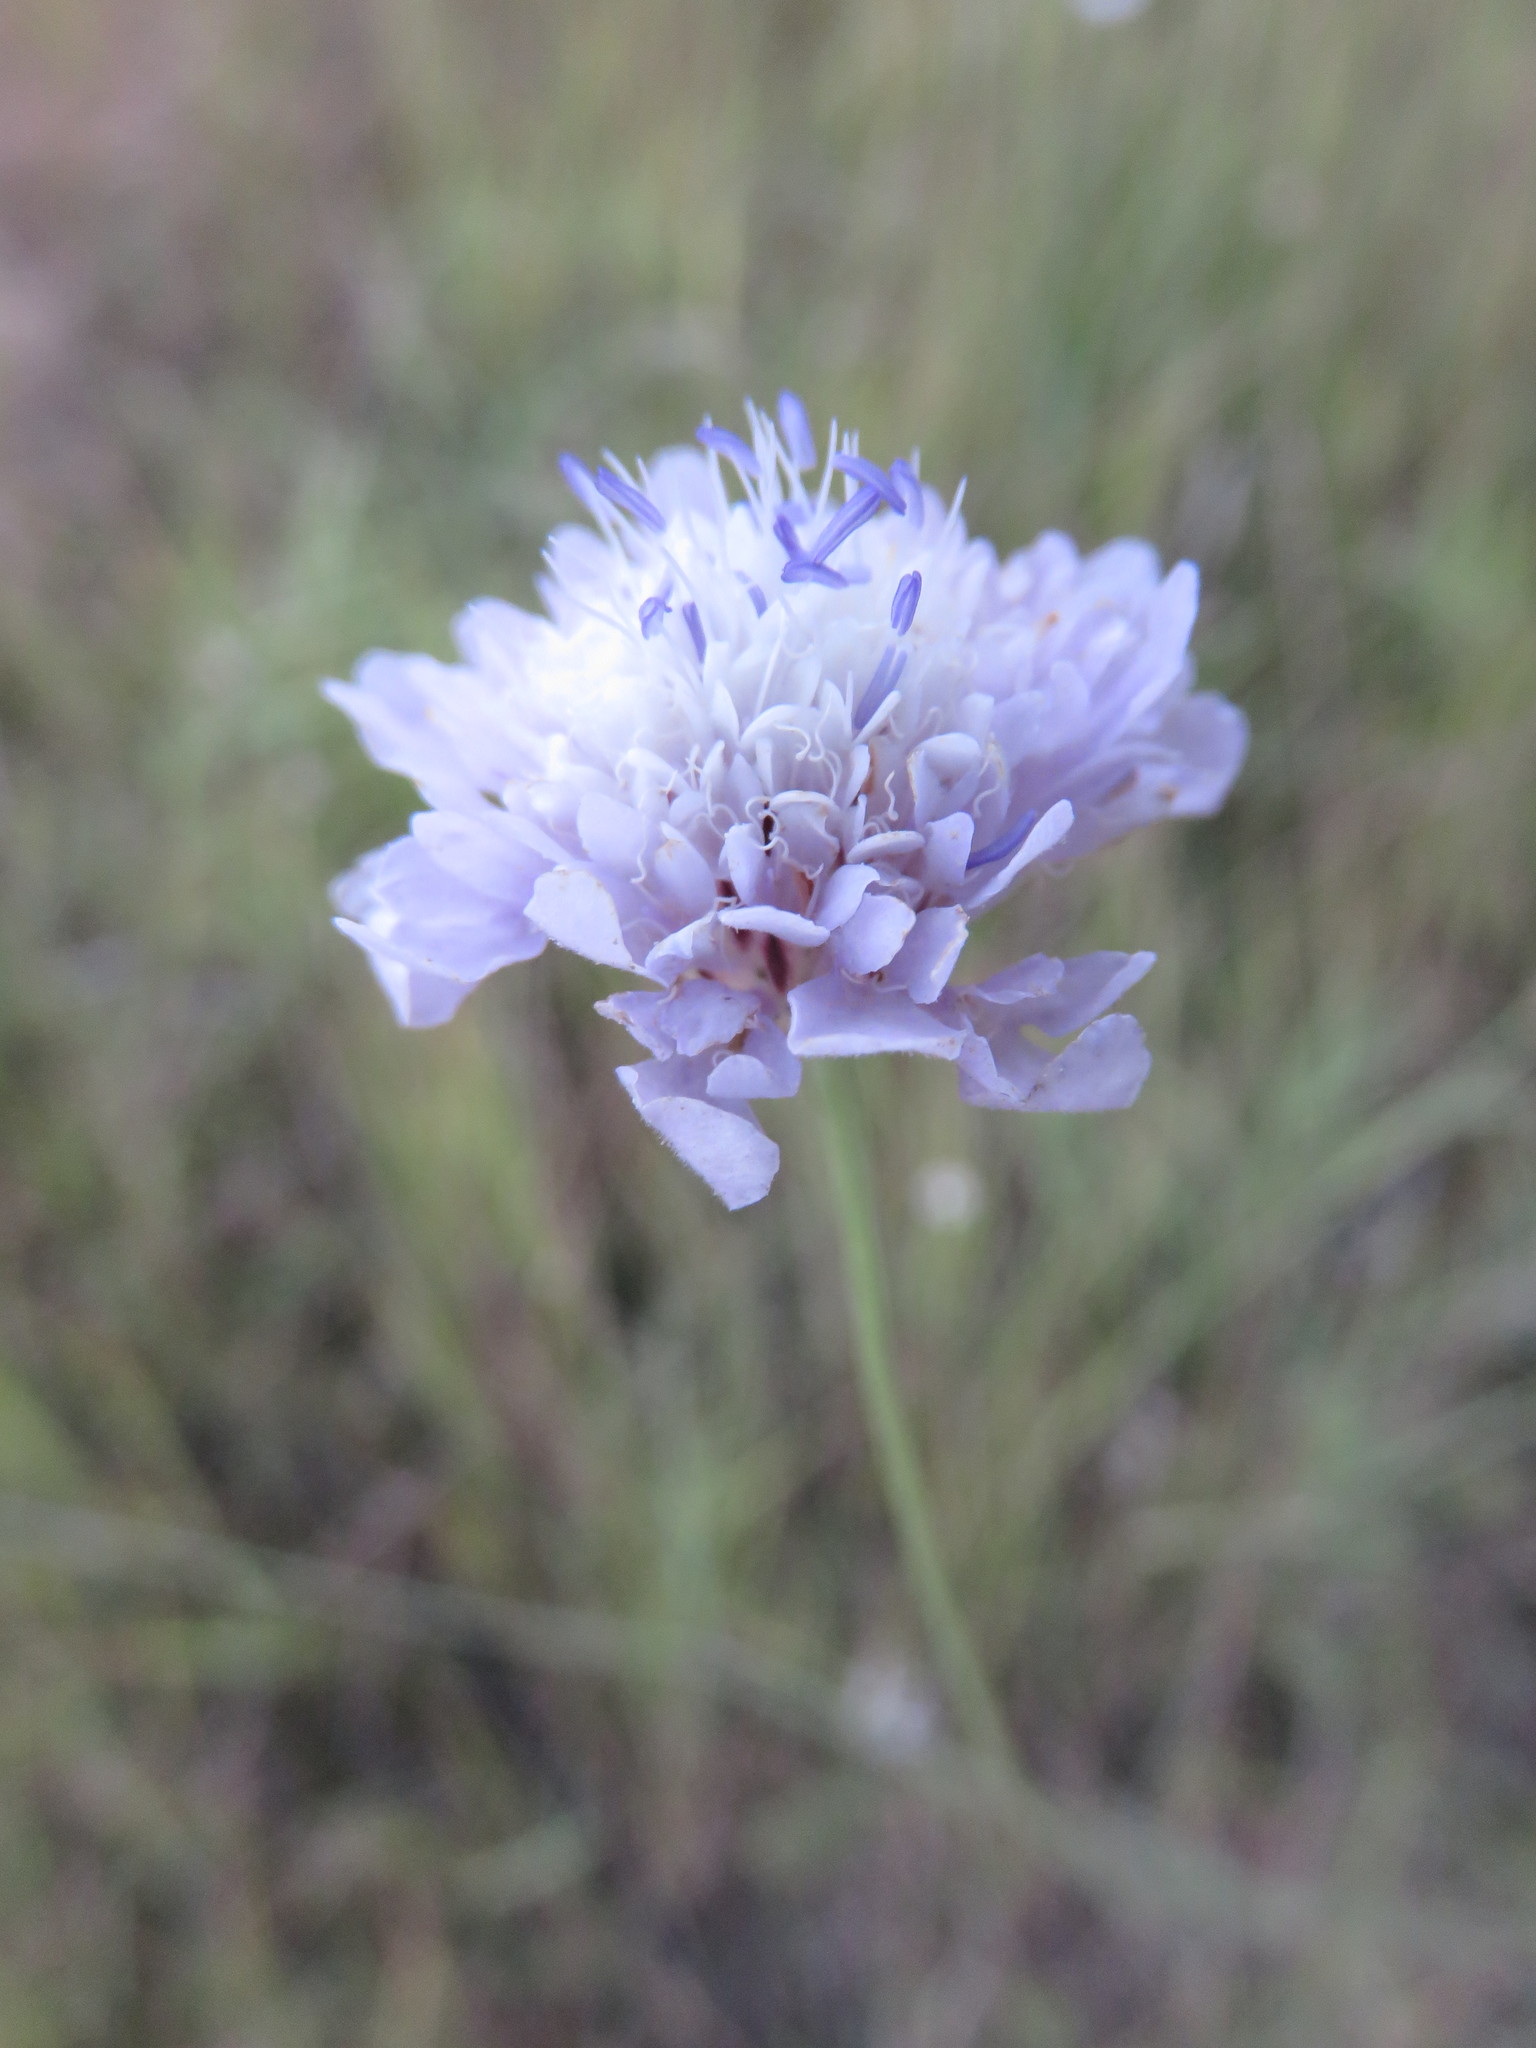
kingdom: Plantae
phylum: Tracheophyta
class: Magnoliopsida
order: Dipsacales
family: Caprifoliaceae
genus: Cephalaria
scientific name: Cephalaria transsylvanica
